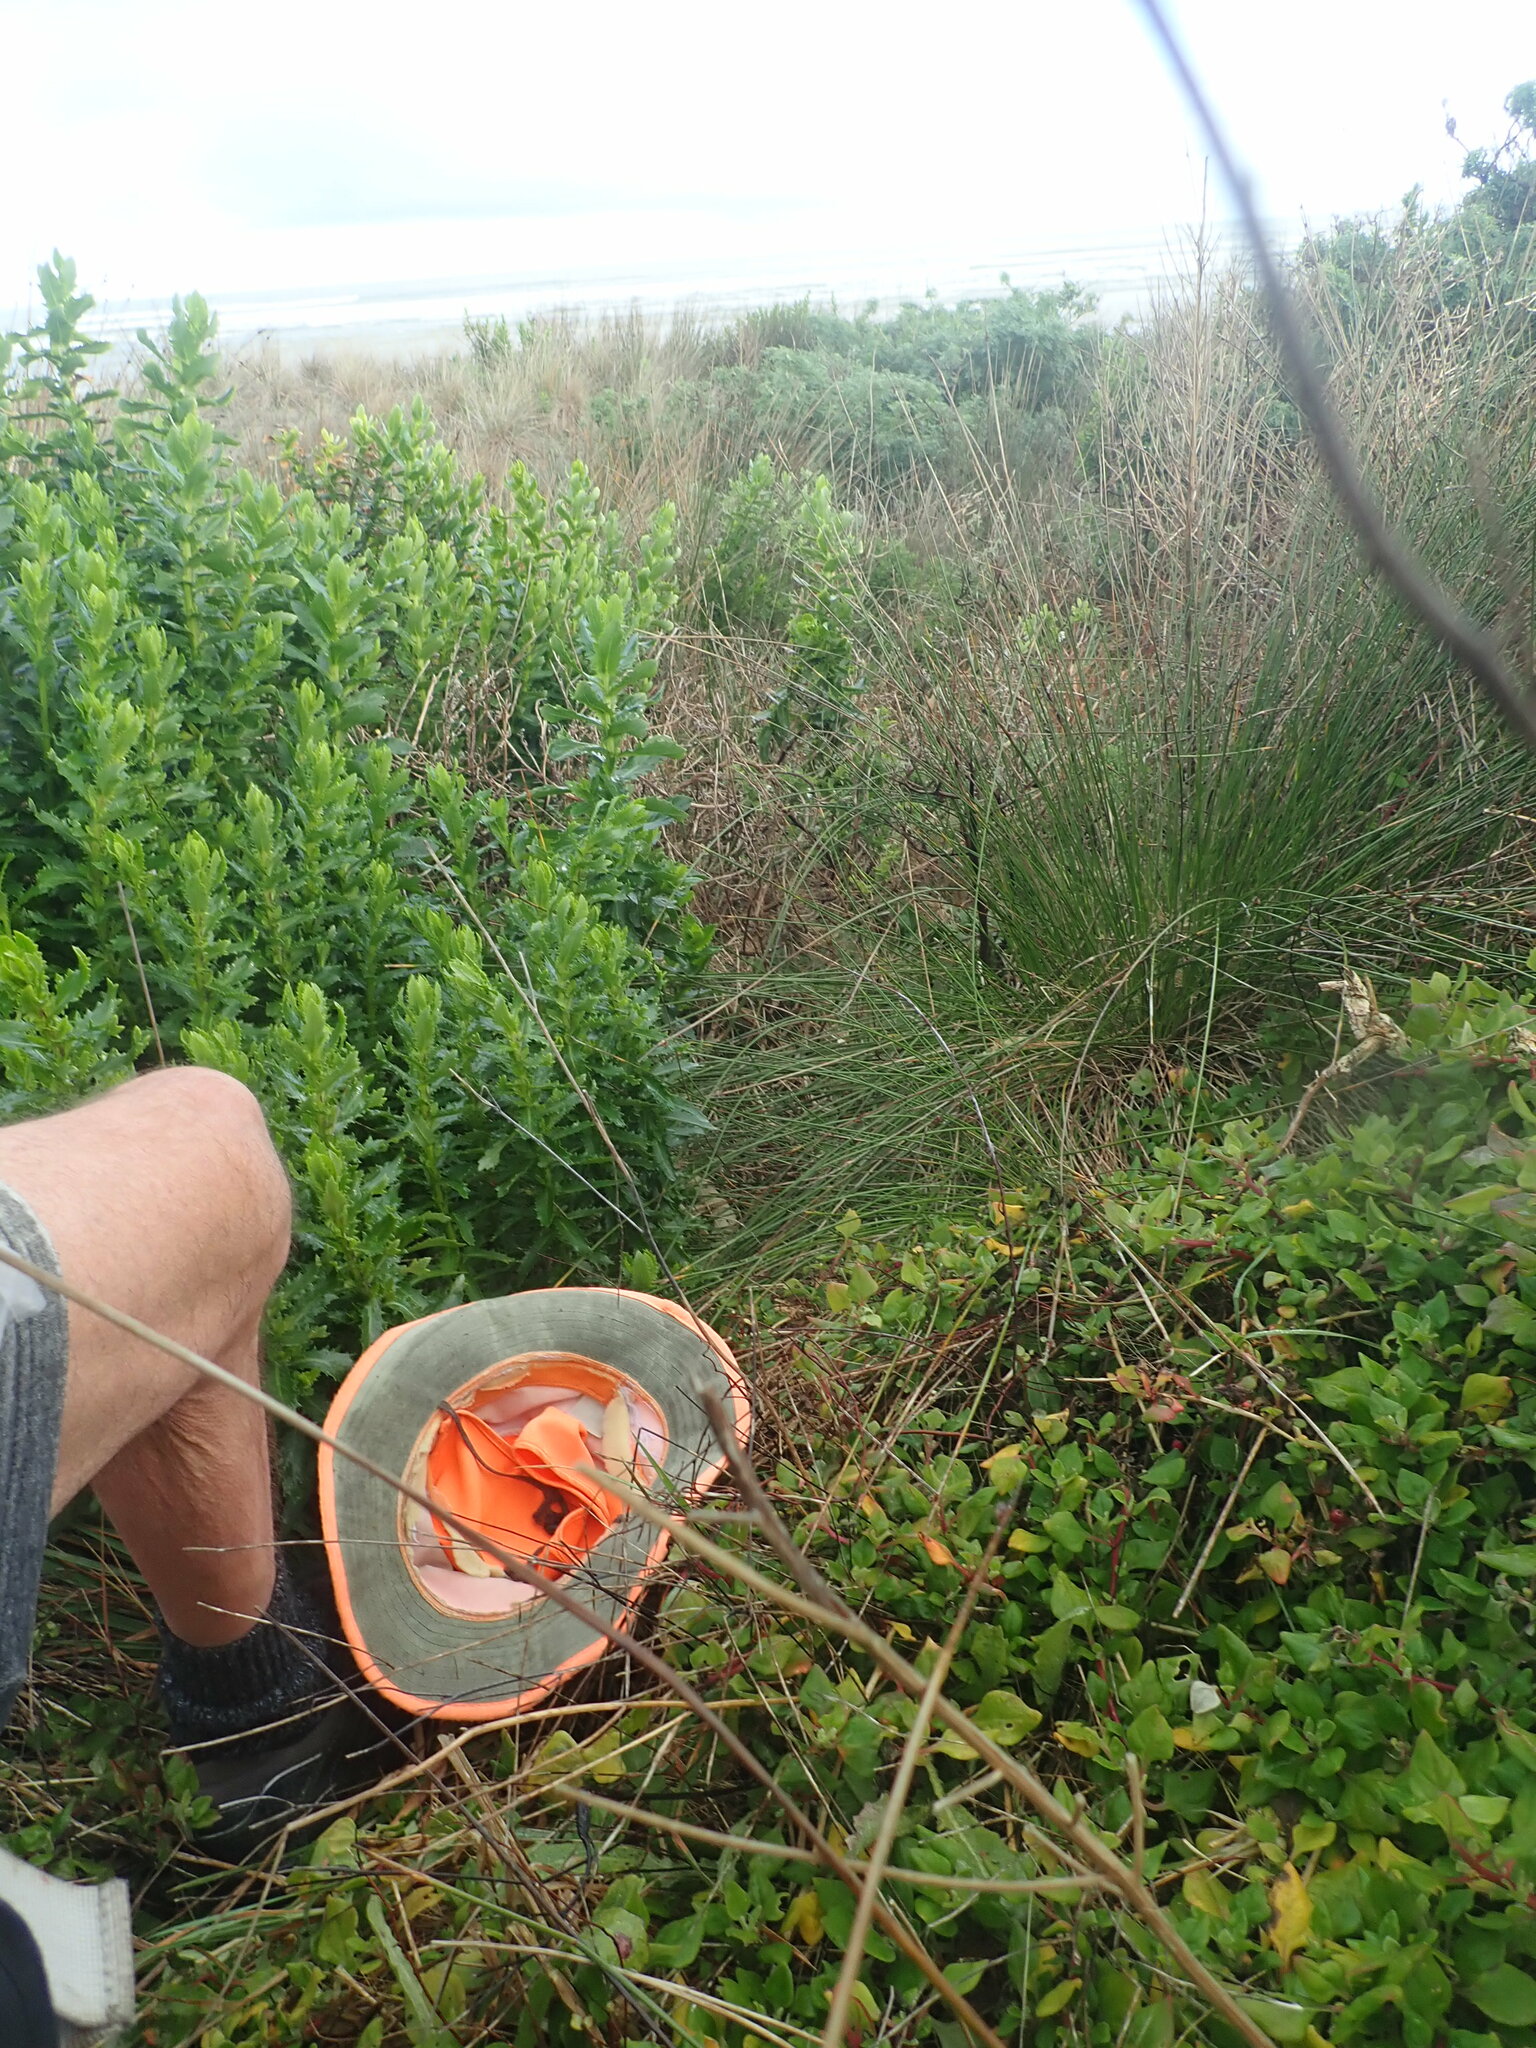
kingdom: Plantae
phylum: Tracheophyta
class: Magnoliopsida
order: Caryophyllales
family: Aizoaceae
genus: Tetragonia
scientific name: Tetragonia implexicoma
